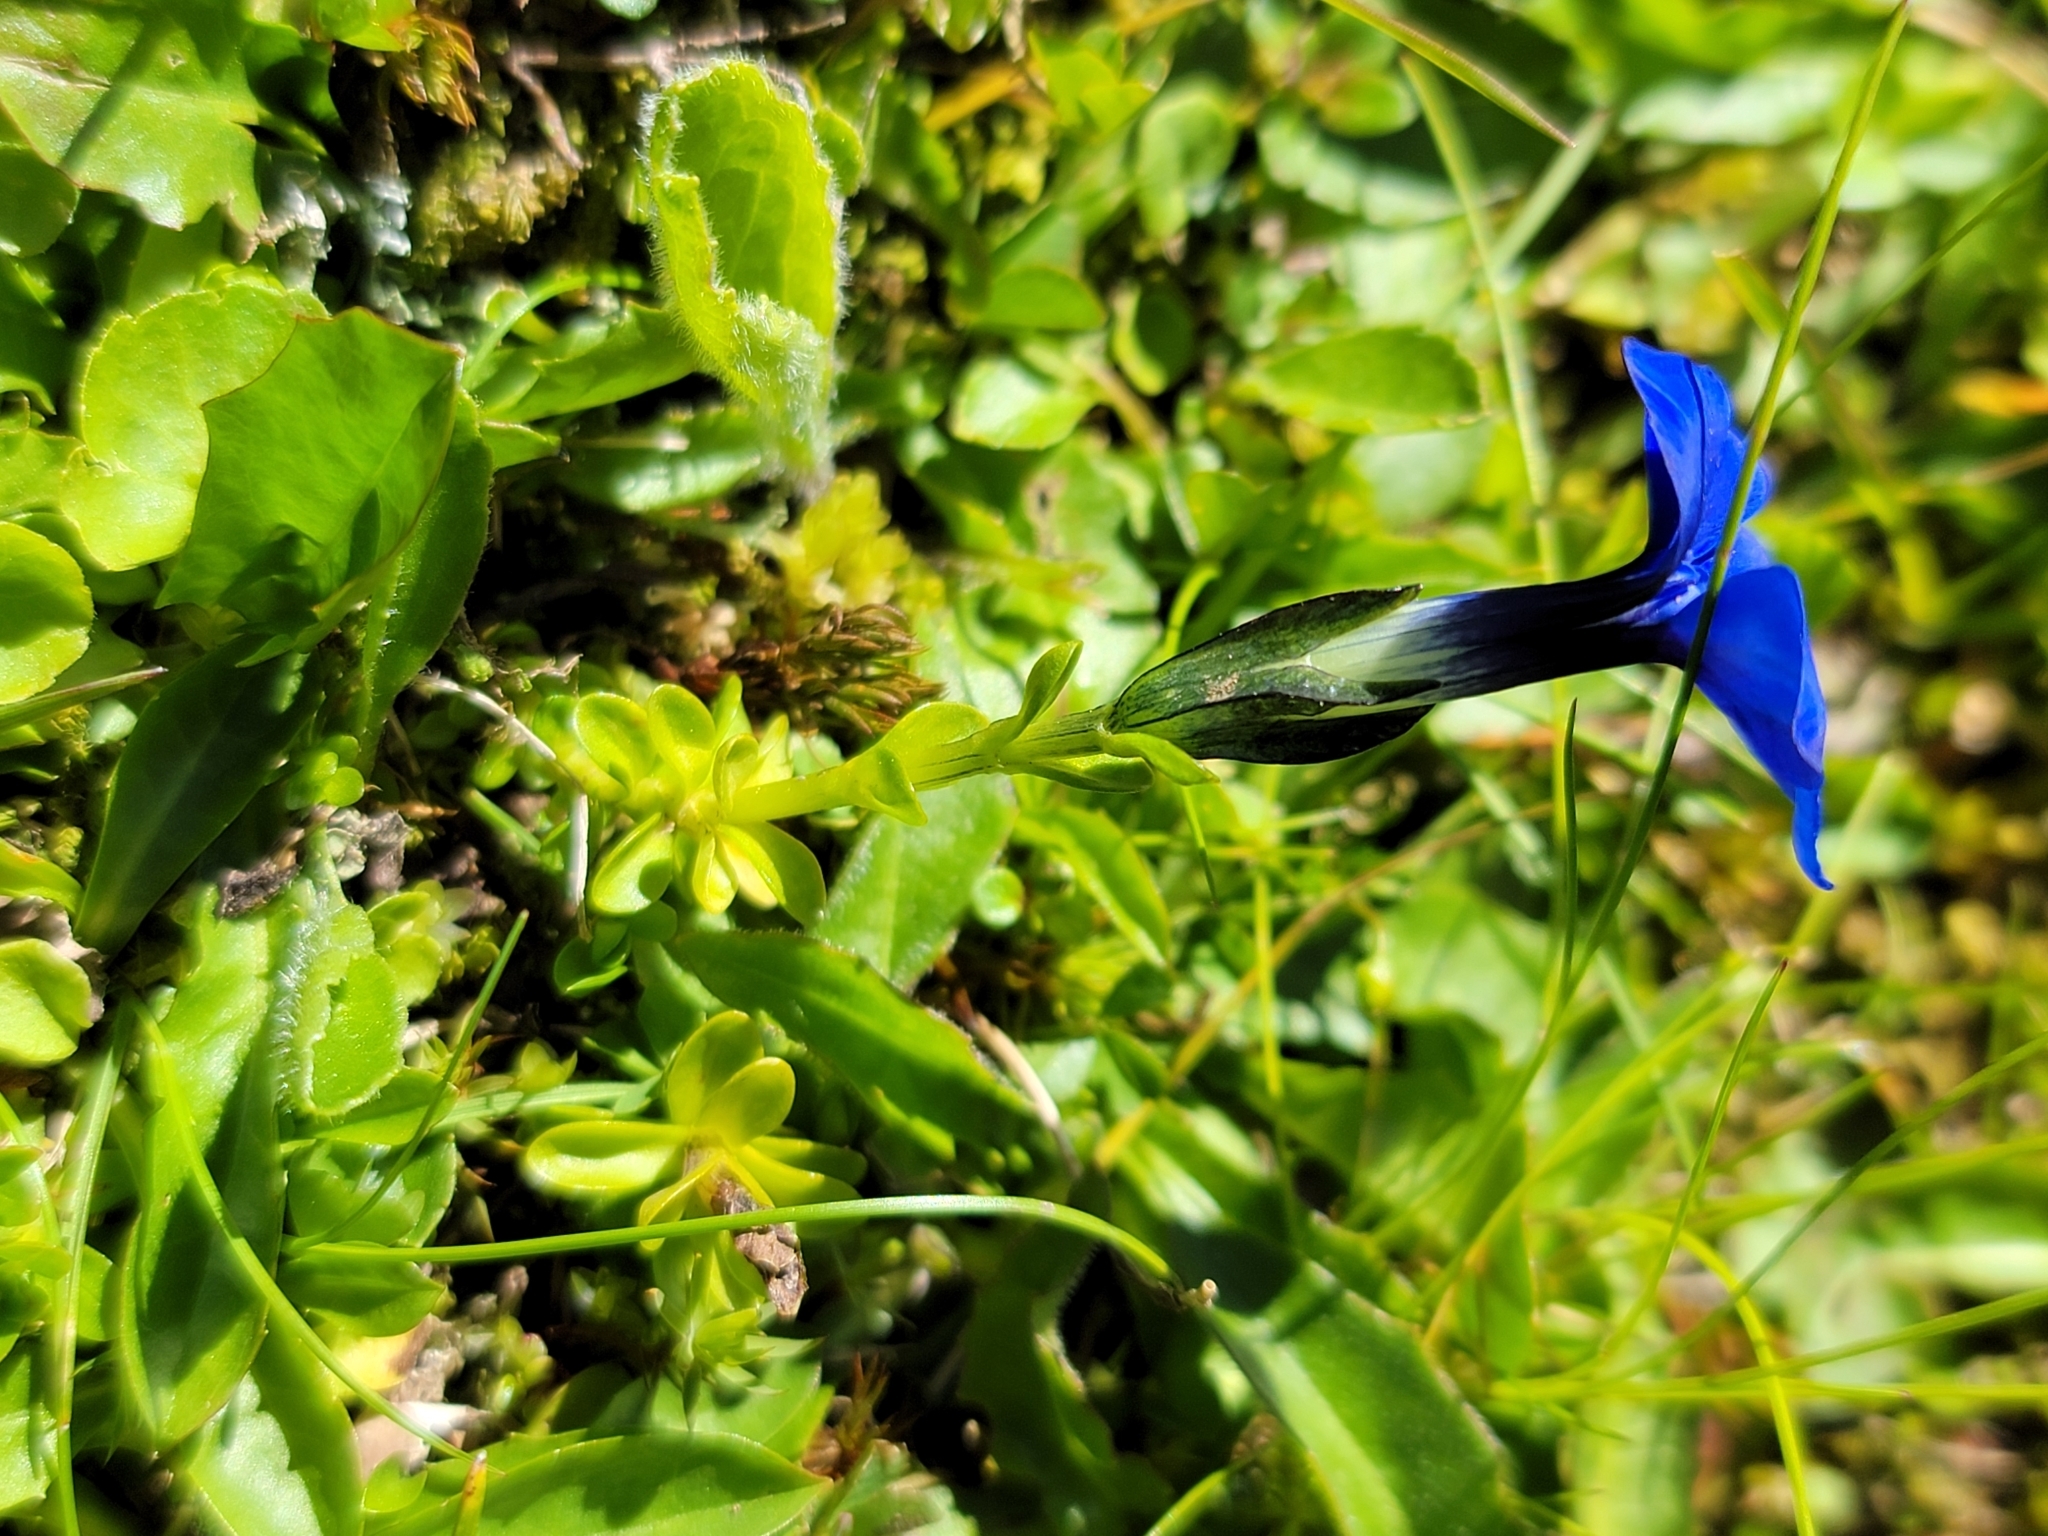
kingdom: Plantae
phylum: Tracheophyta
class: Magnoliopsida
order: Gentianales
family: Gentianaceae
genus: Gentiana
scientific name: Gentiana bavarica
